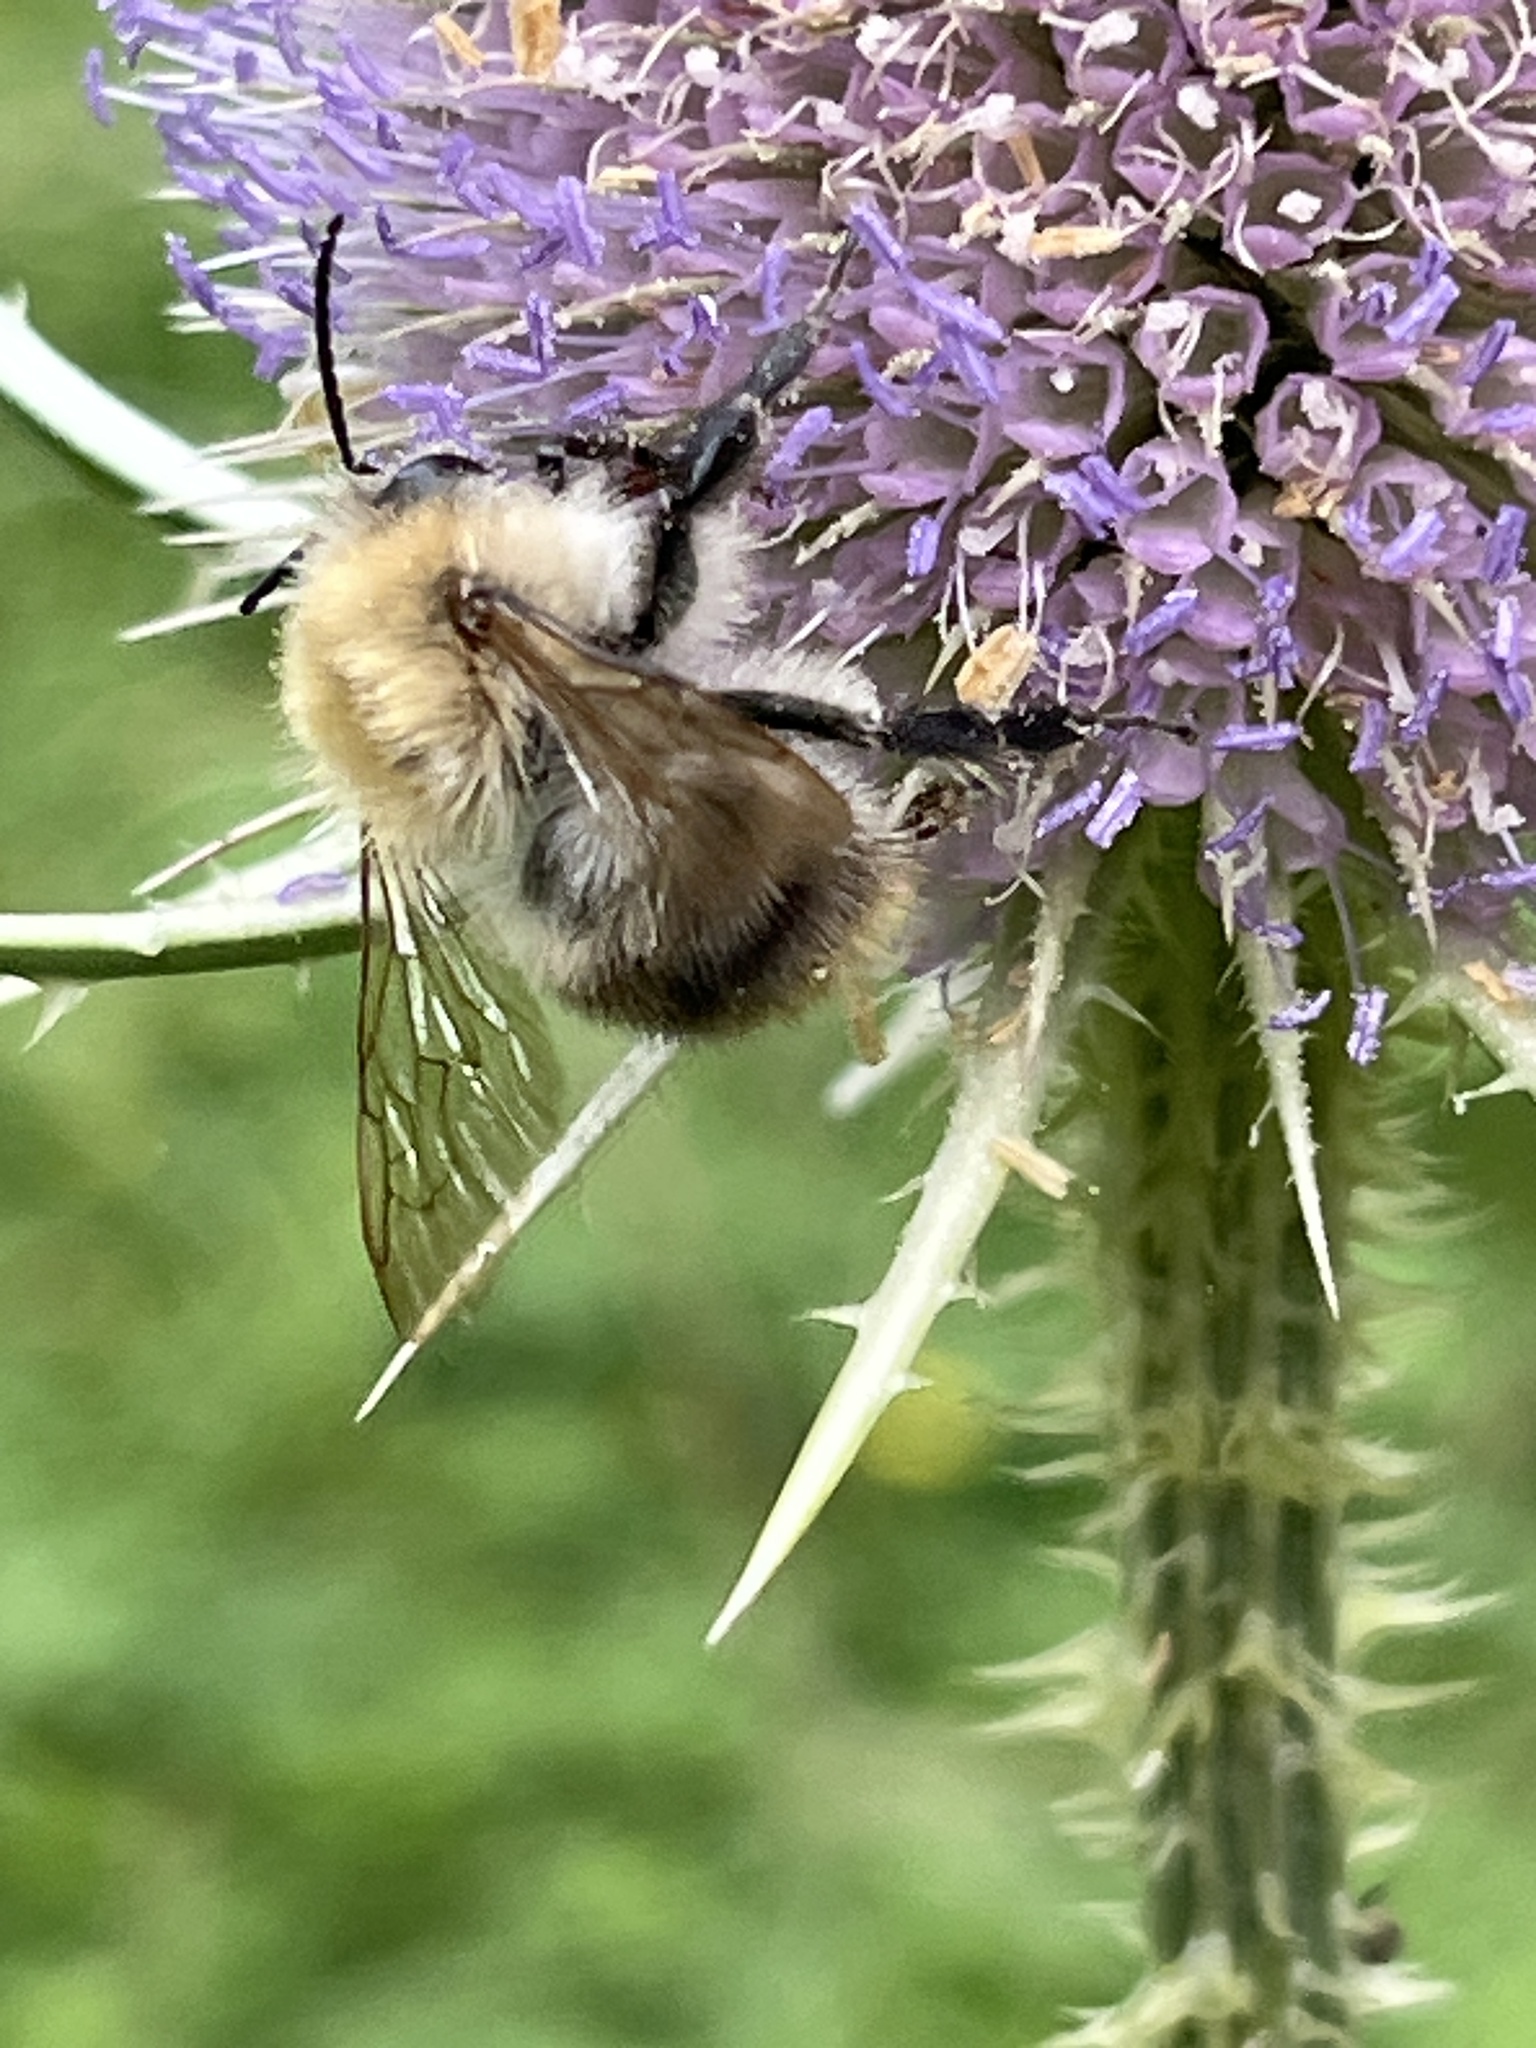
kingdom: Animalia
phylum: Arthropoda
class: Insecta
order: Hymenoptera
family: Apidae
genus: Bombus
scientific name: Bombus pascuorum
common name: Common carder bee
